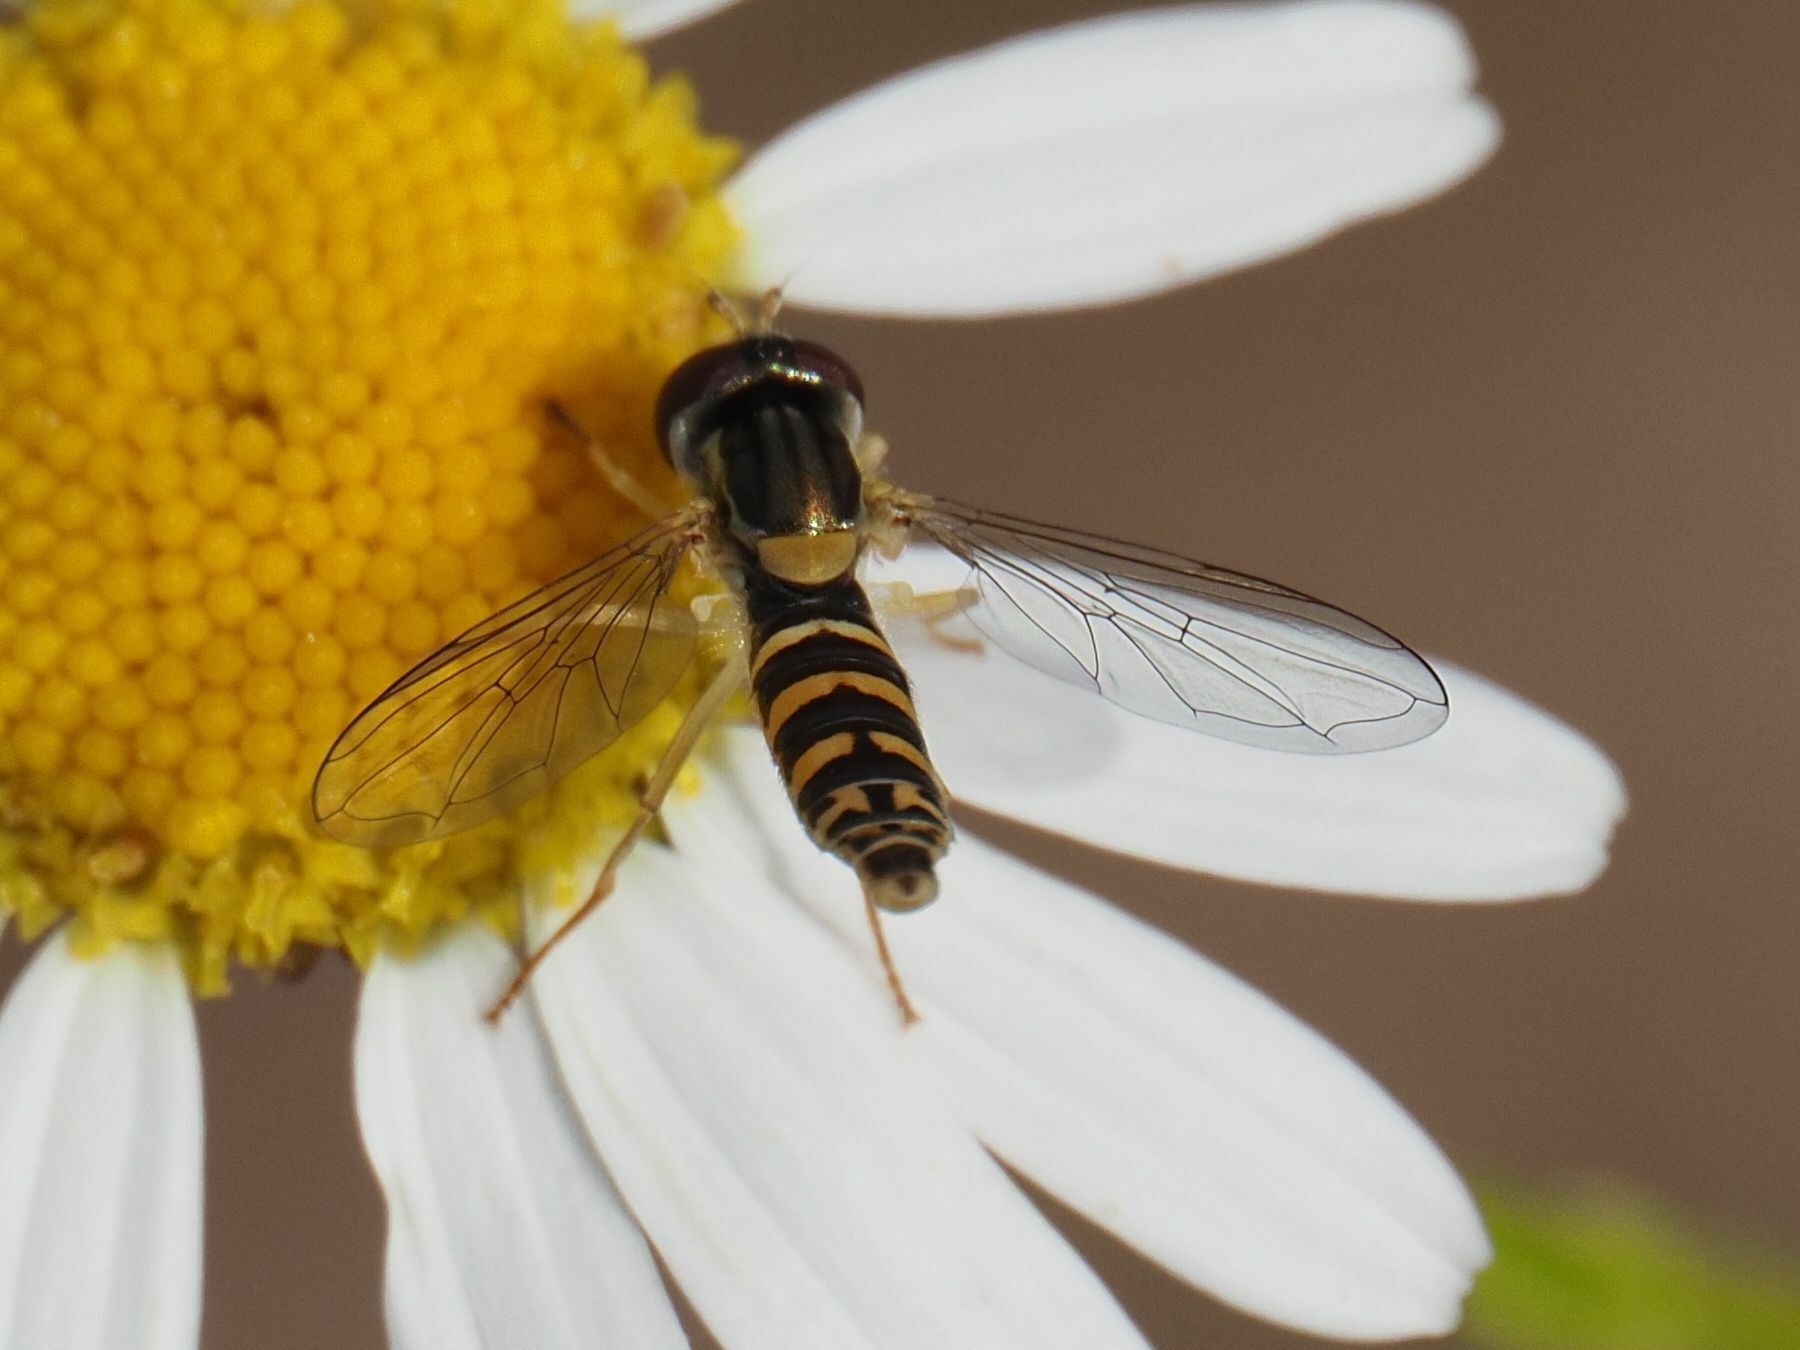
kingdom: Animalia
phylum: Arthropoda
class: Insecta
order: Diptera
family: Syrphidae
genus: Sphaerophoria
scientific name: Sphaerophoria
